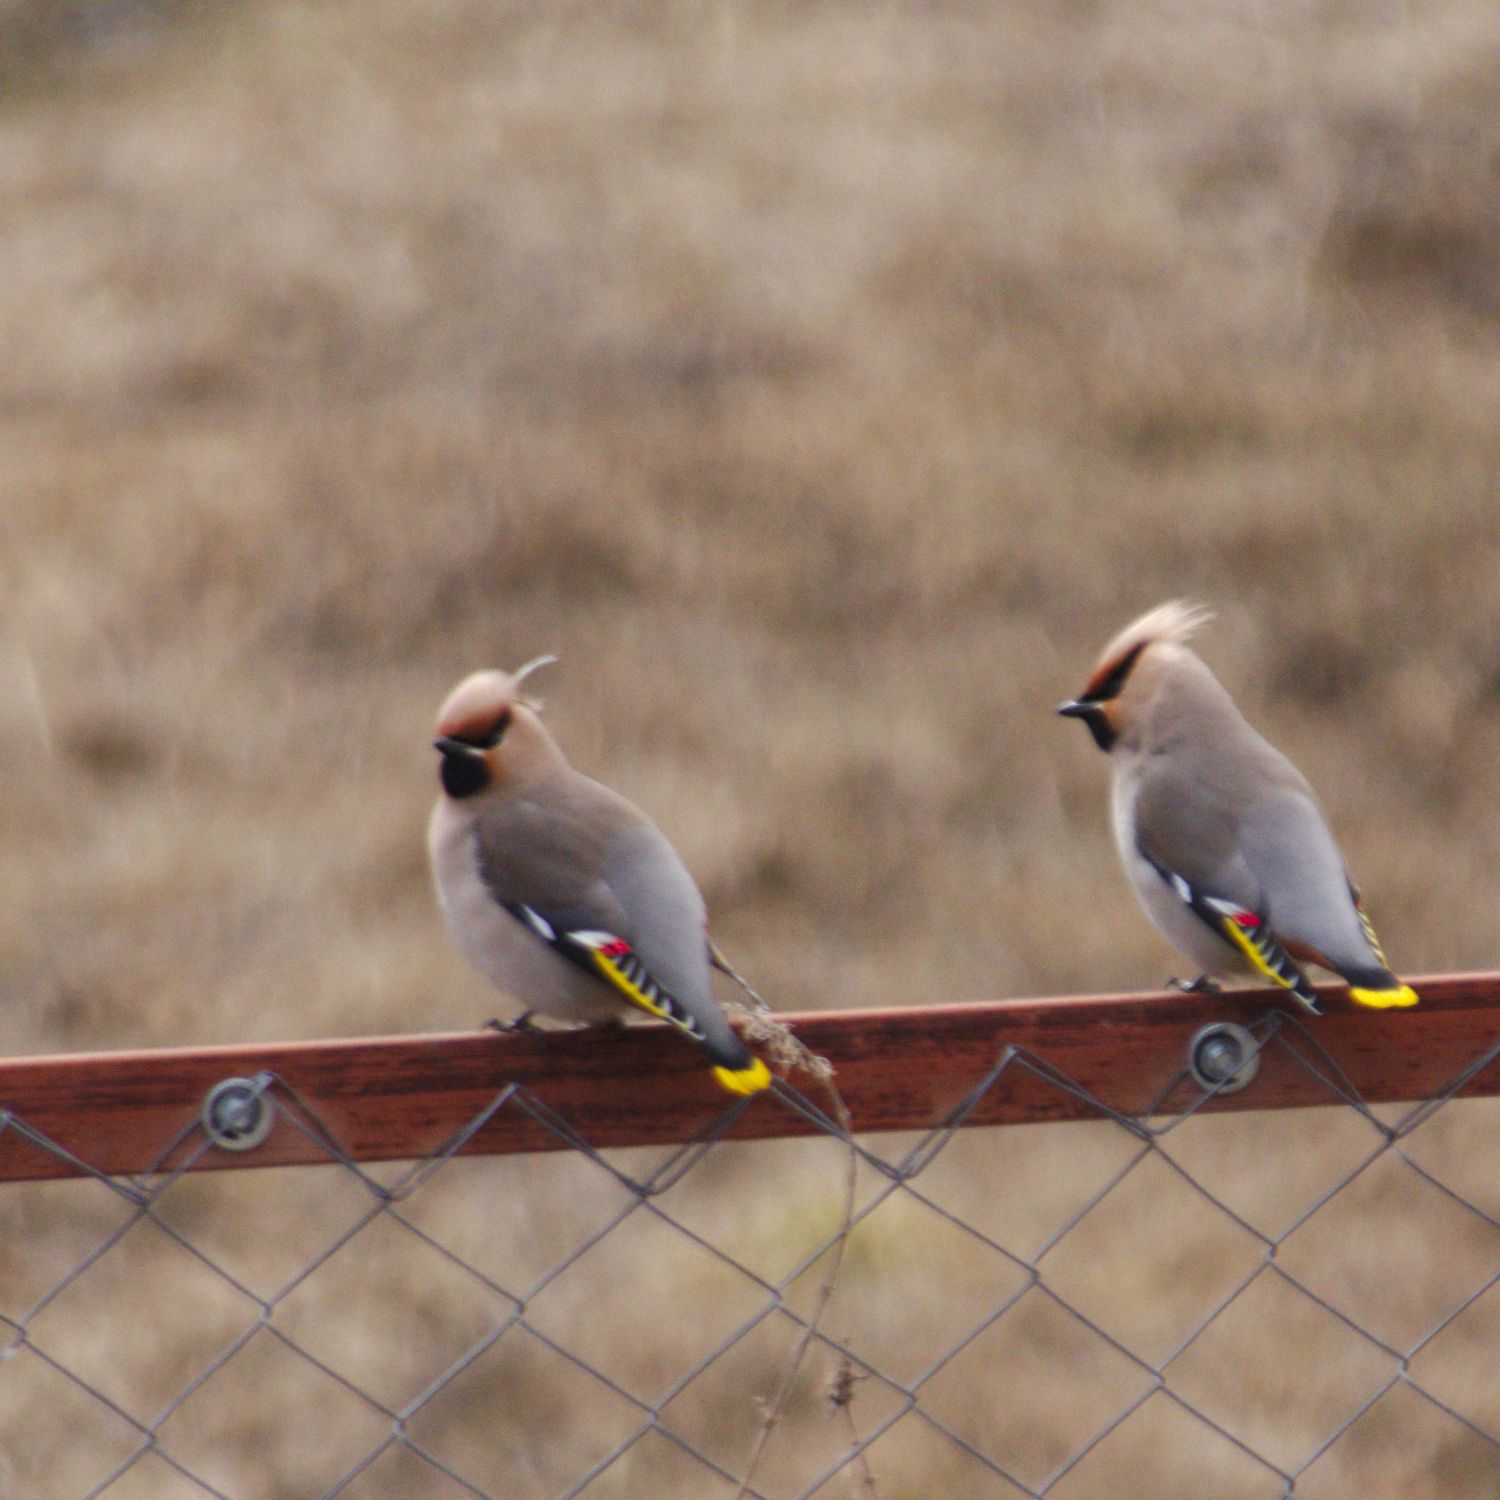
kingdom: Animalia
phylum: Chordata
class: Aves
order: Passeriformes
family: Bombycillidae
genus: Bombycilla
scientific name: Bombycilla garrulus
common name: Bohemian waxwing
